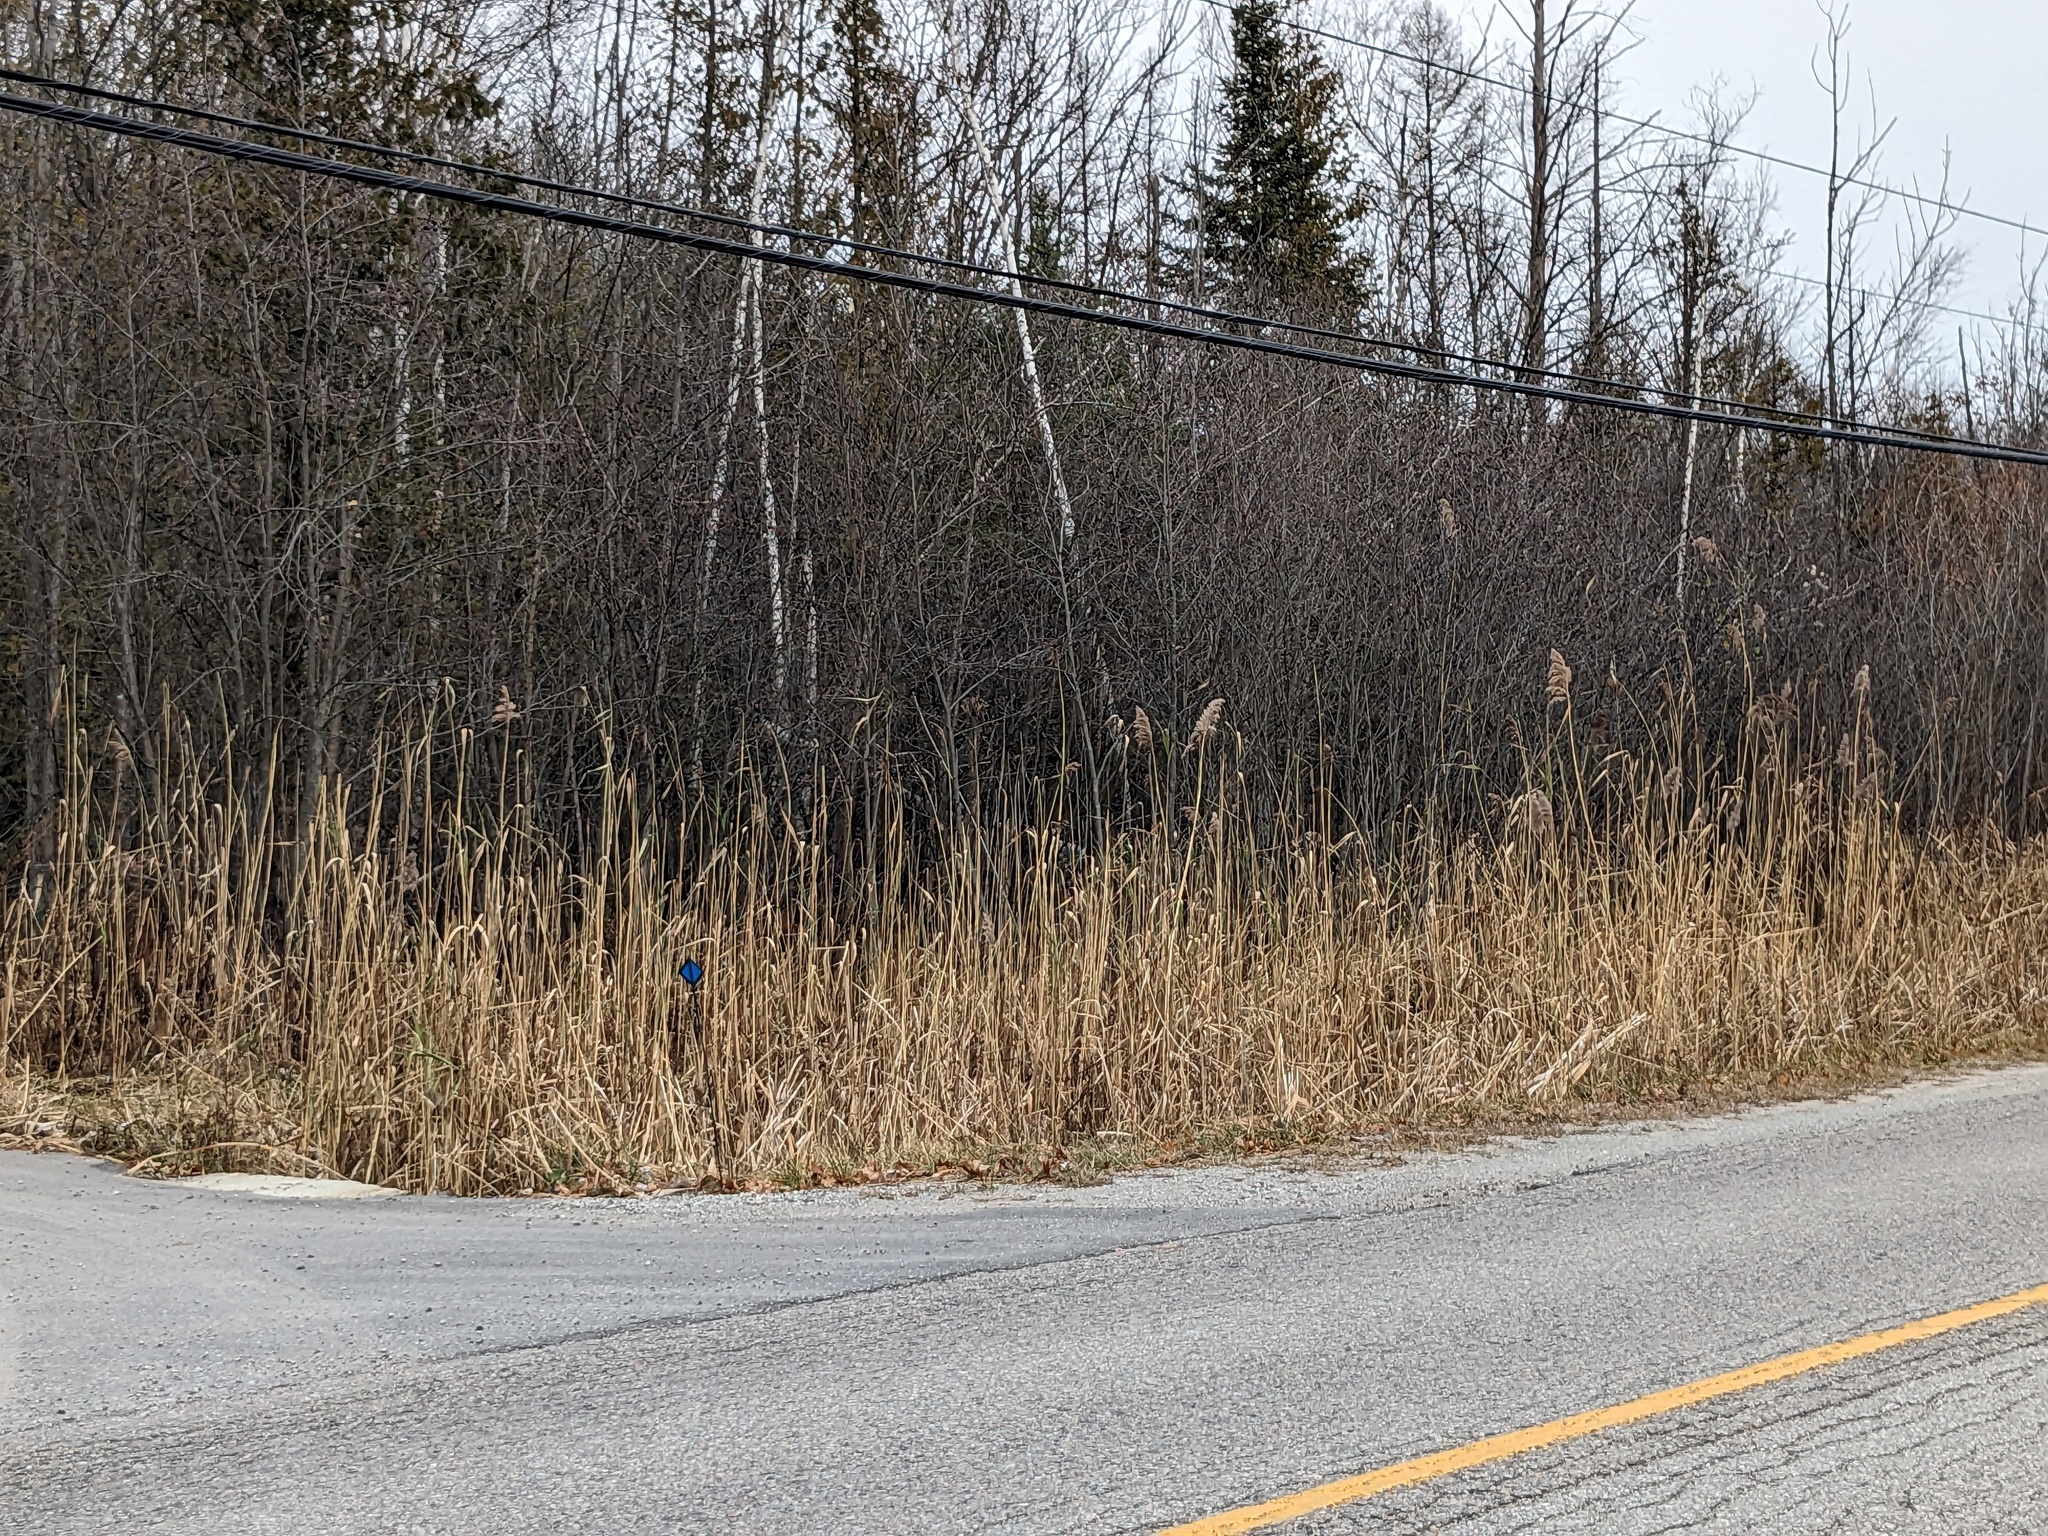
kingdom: Plantae
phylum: Tracheophyta
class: Liliopsida
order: Poales
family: Poaceae
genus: Phragmites
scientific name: Phragmites australis
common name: Common reed
